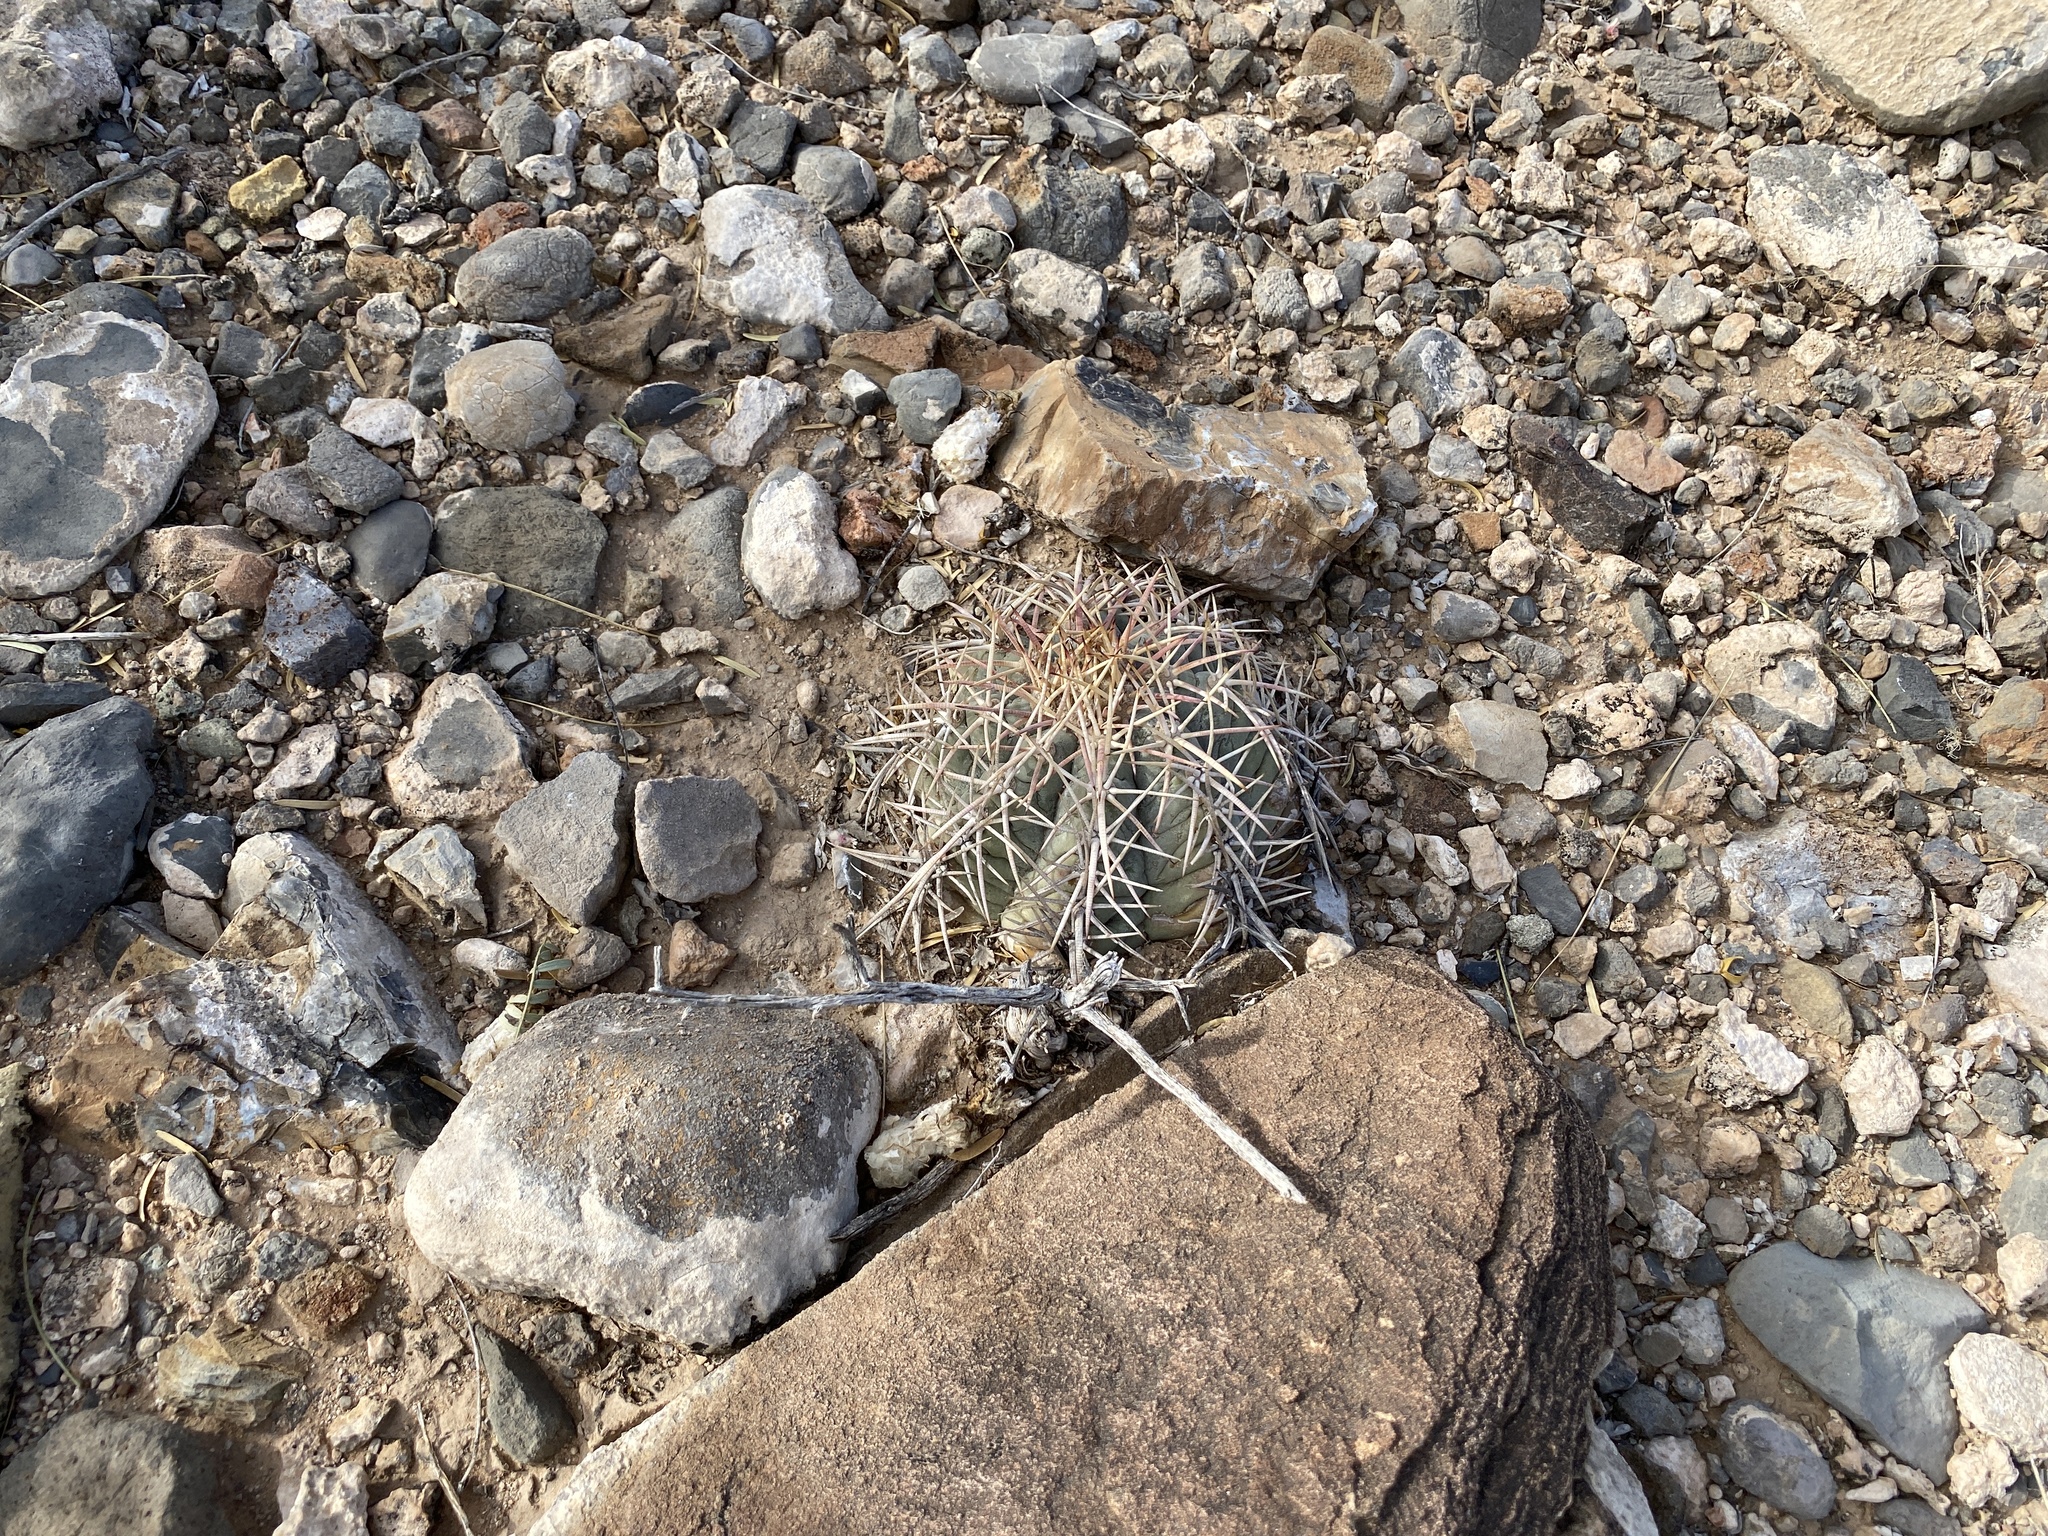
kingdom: Plantae
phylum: Tracheophyta
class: Magnoliopsida
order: Caryophyllales
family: Cactaceae
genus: Echinocactus
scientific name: Echinocactus horizonthalonius
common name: Devilshead
